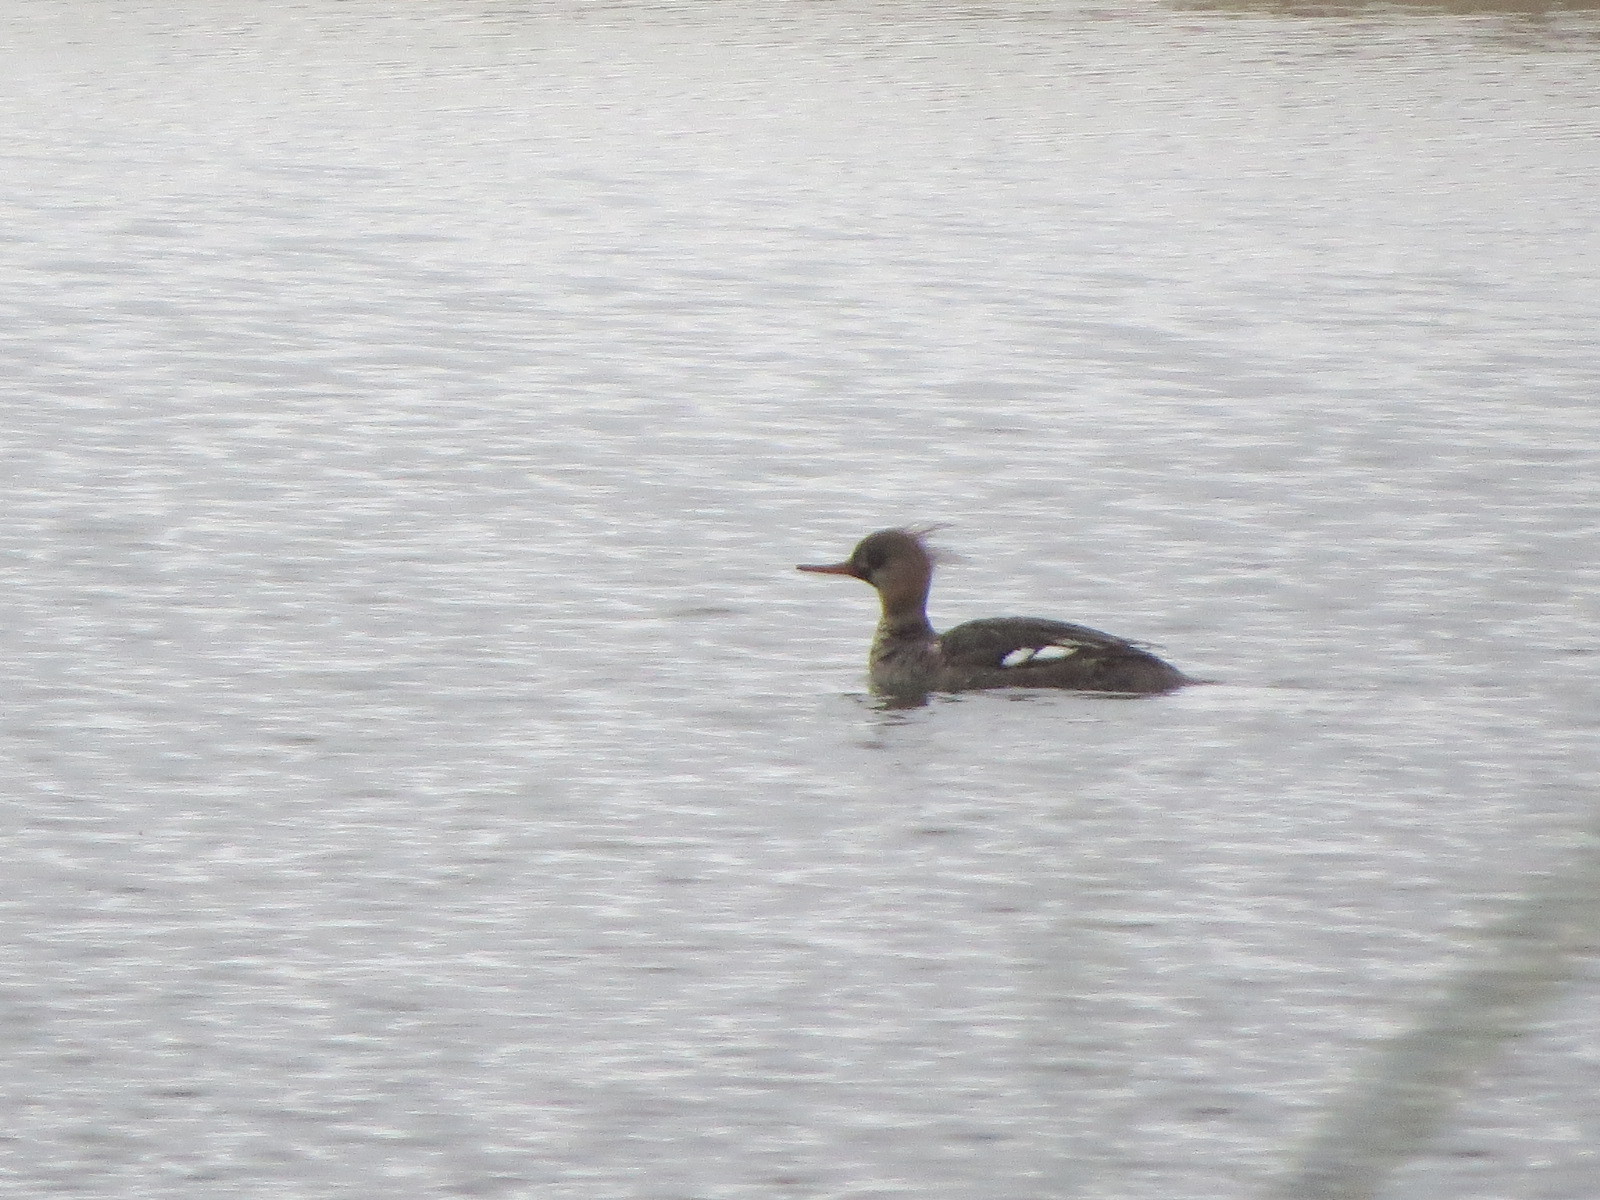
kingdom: Animalia
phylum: Chordata
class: Aves
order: Anseriformes
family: Anatidae
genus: Mergus
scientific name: Mergus serrator
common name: Red-breasted merganser
